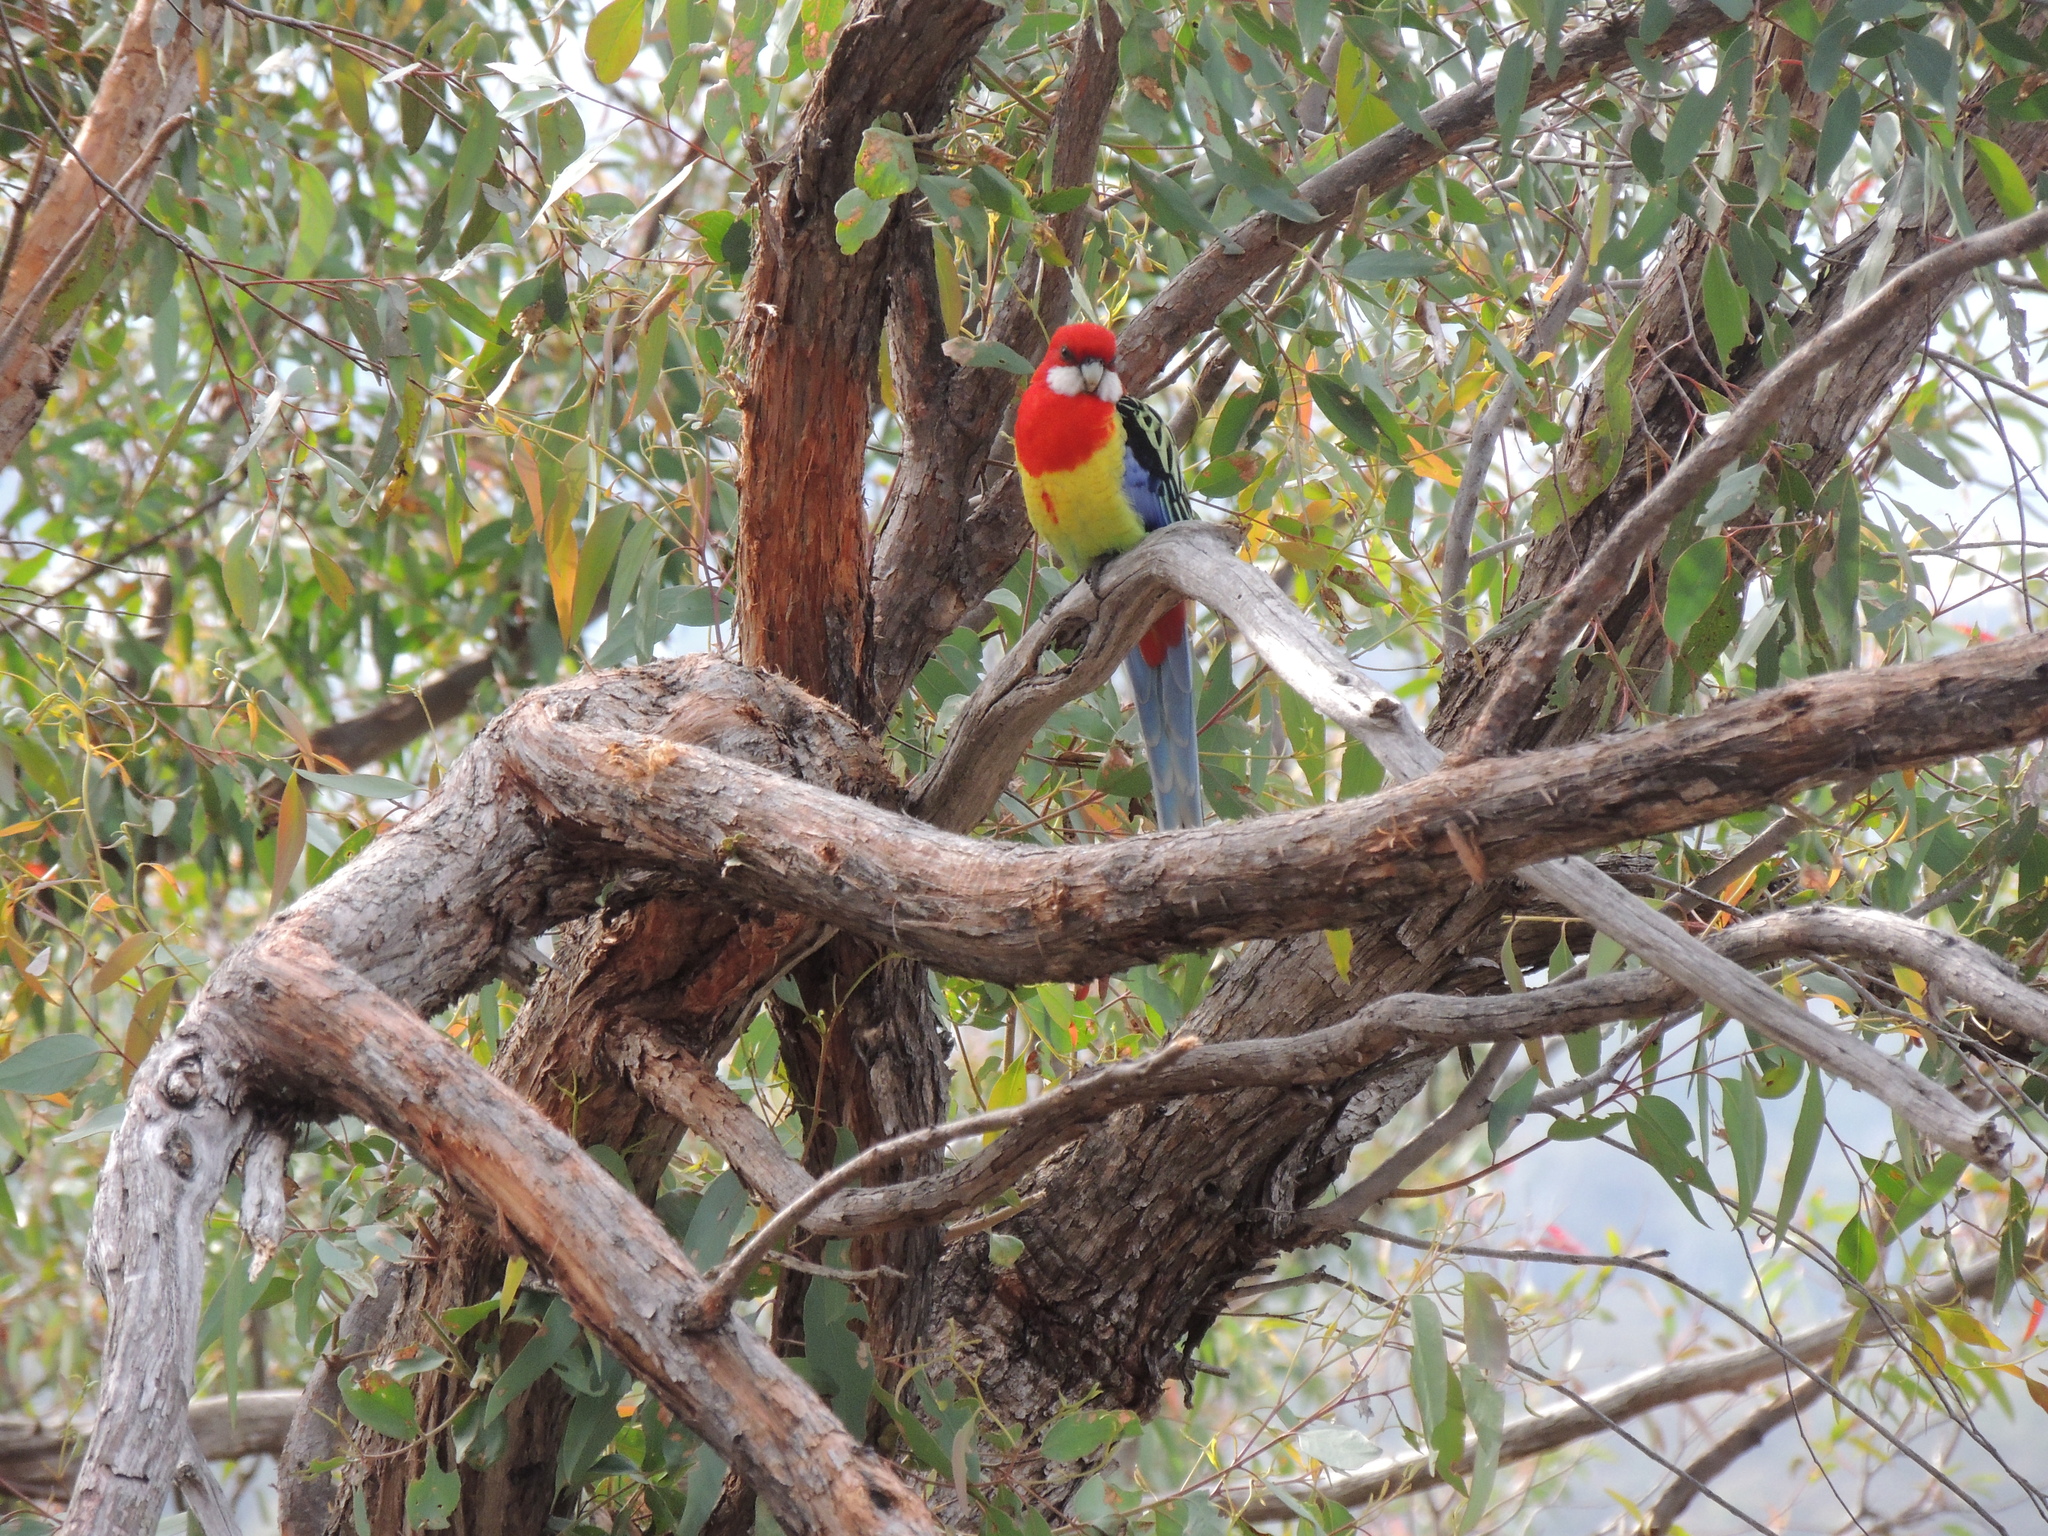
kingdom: Animalia
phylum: Chordata
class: Aves
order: Psittaciformes
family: Psittacidae
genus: Platycercus
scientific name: Platycercus eximius
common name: Eastern rosella
